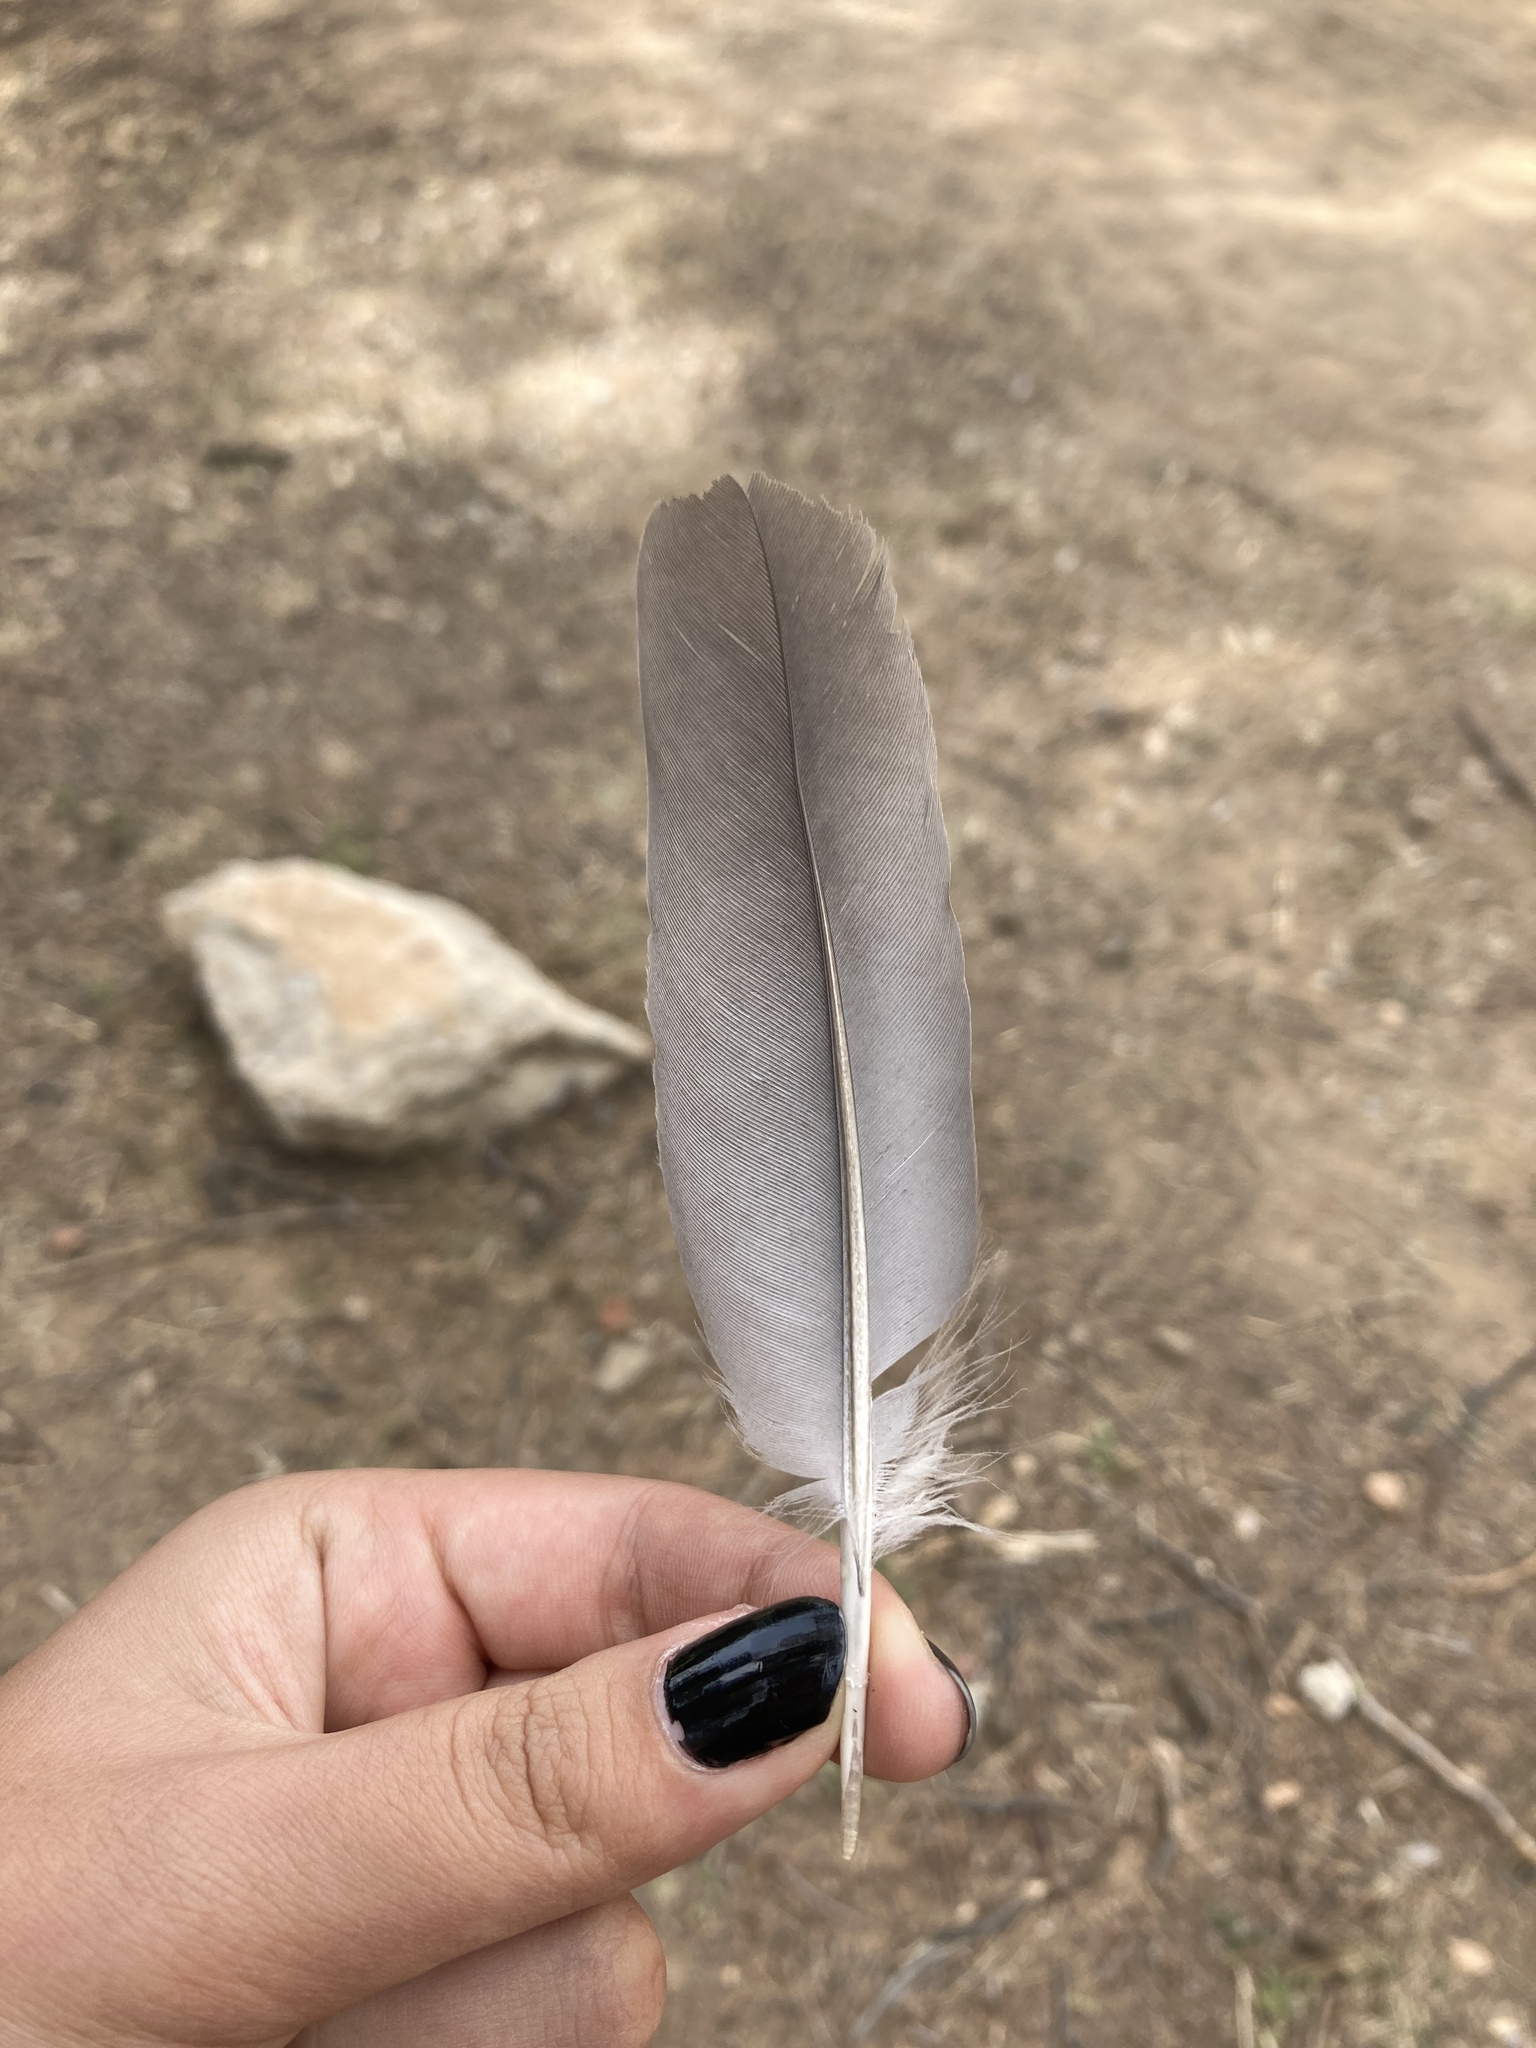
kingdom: Animalia
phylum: Chordata
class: Aves
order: Columbiformes
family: Columbidae
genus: Columba
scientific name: Columba palumbus
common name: Common wood pigeon
